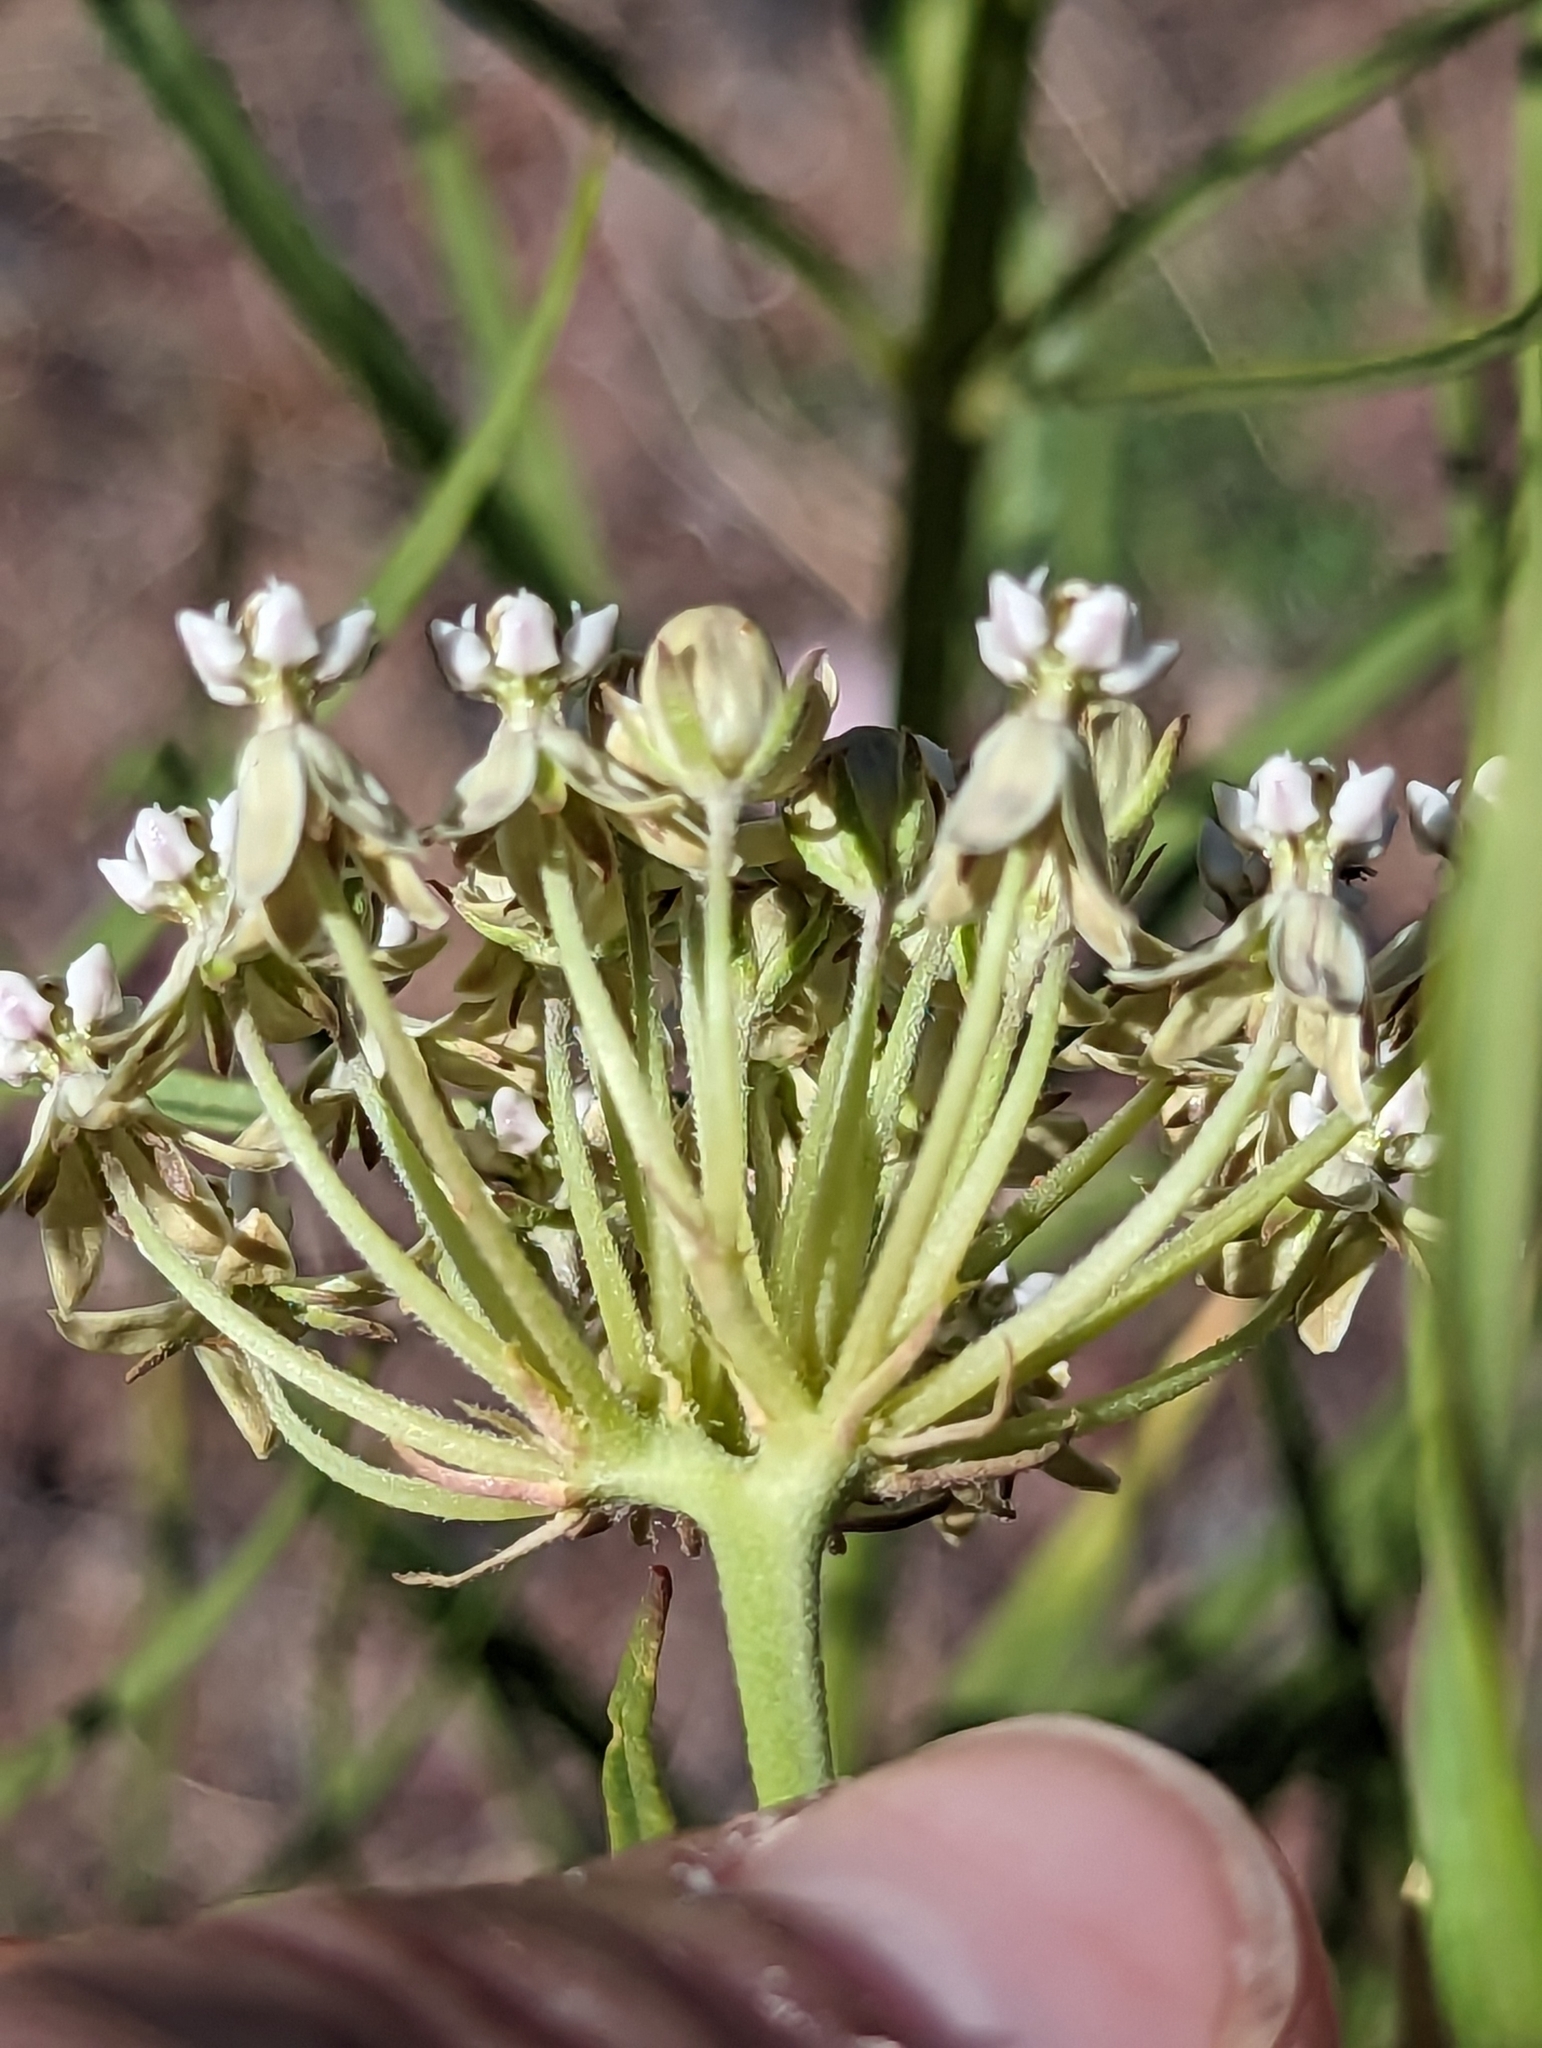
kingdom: Plantae
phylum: Tracheophyta
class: Magnoliopsida
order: Gentianales
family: Apocynaceae
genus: Asclepias
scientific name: Asclepias subverticillata
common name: Horsetail milkweed
